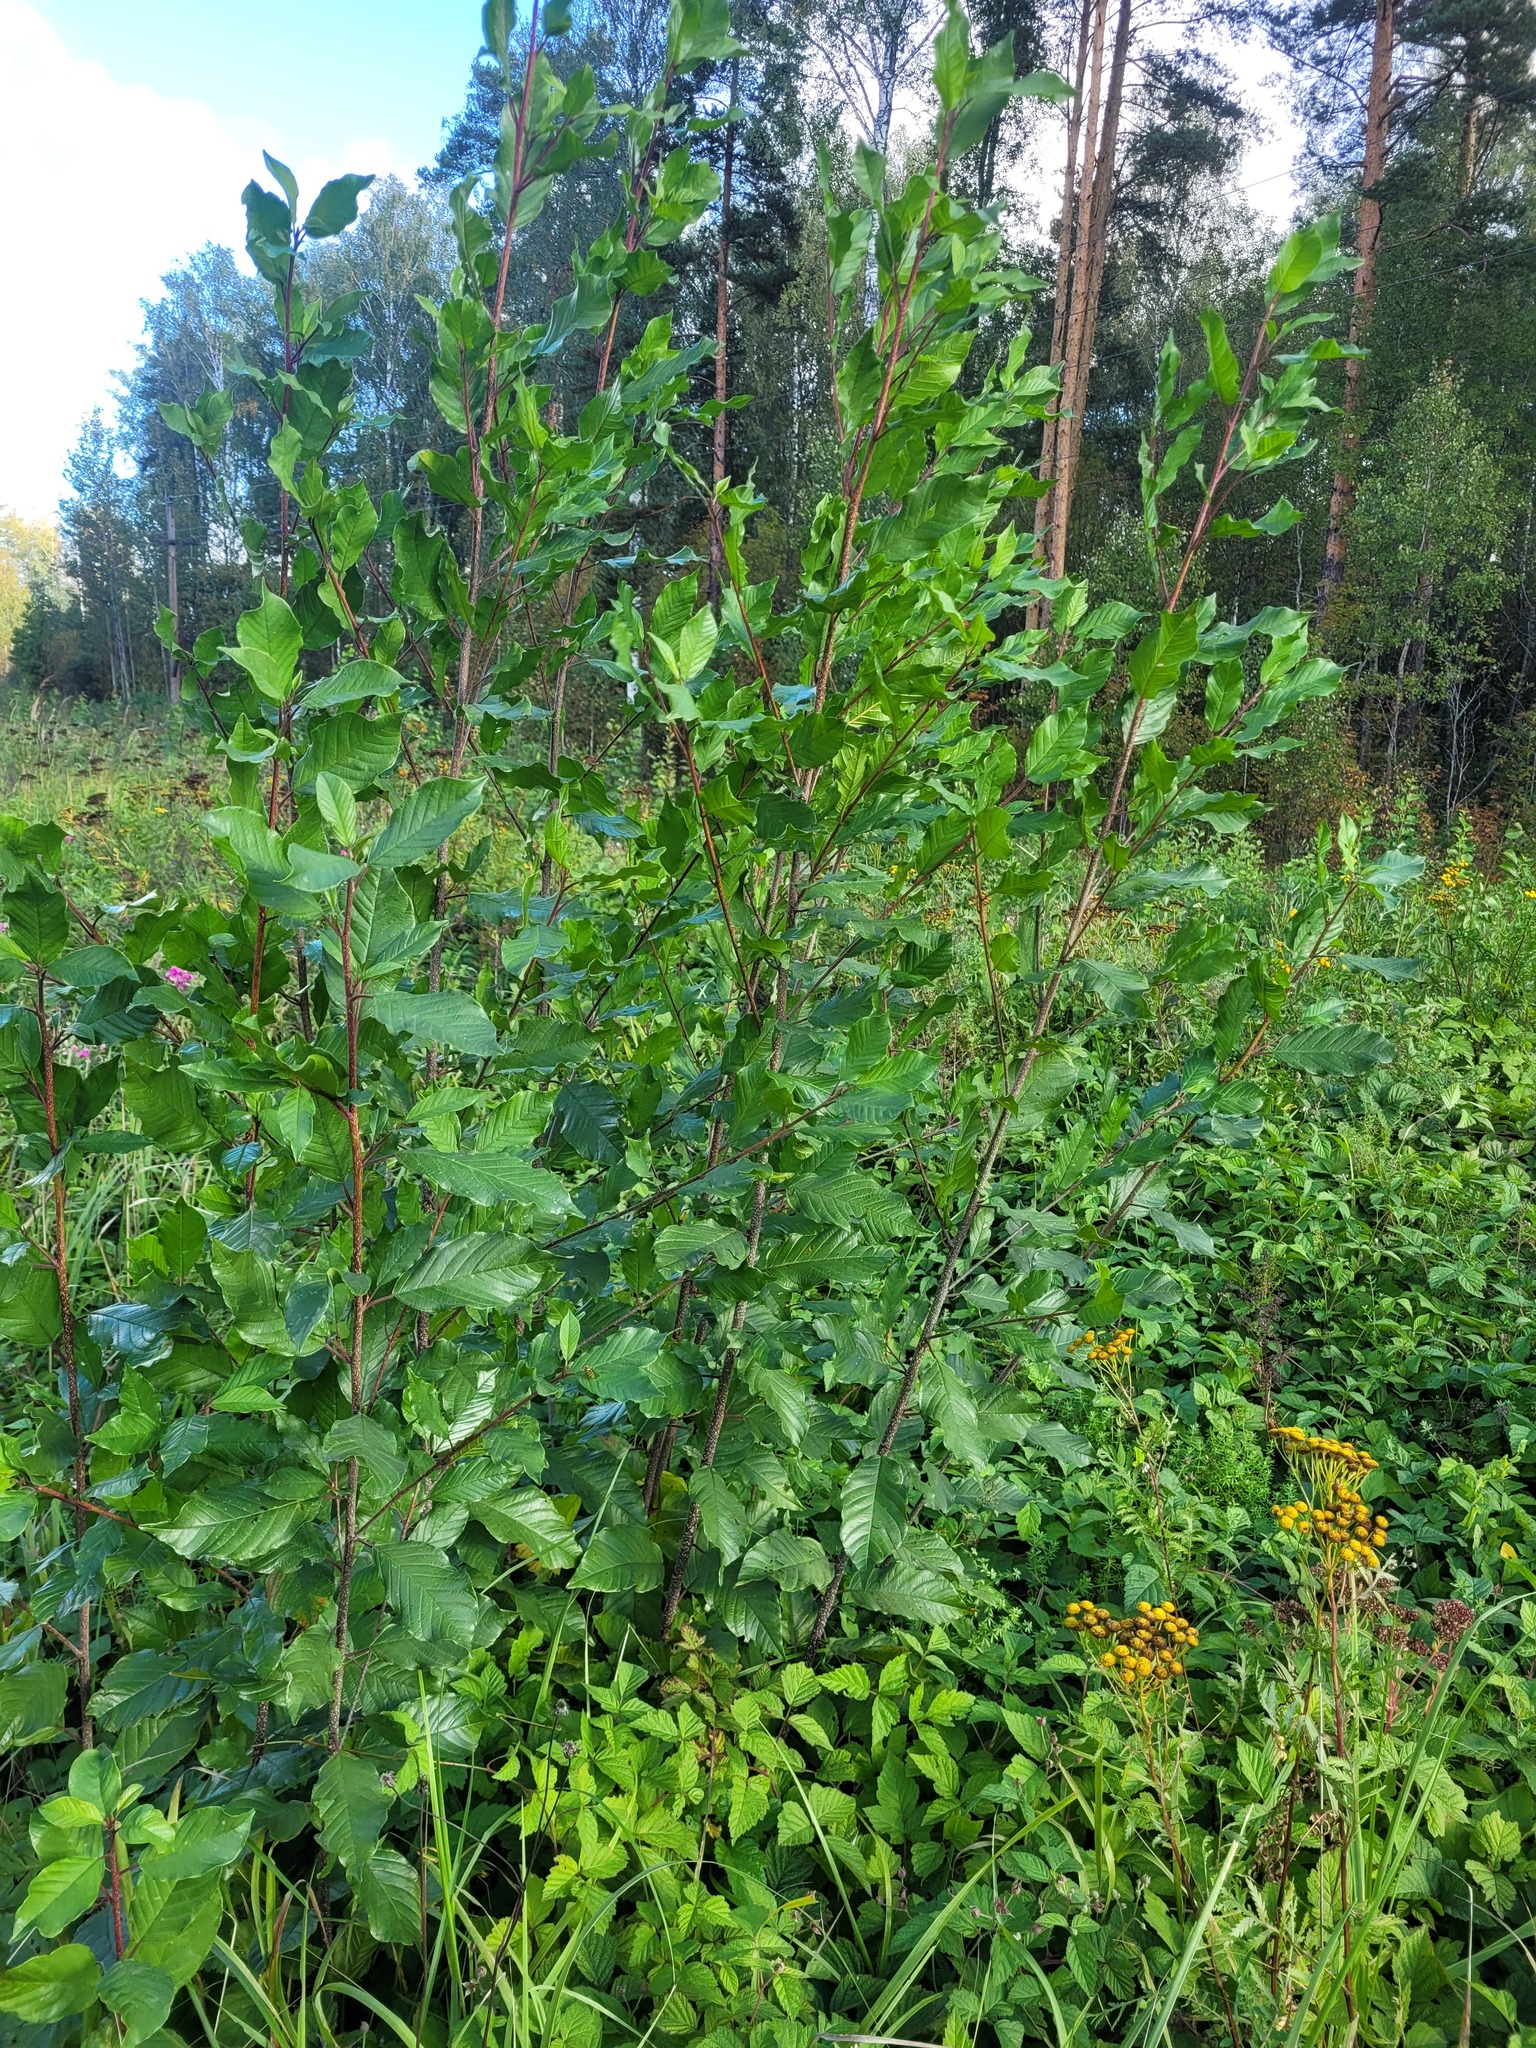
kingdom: Plantae
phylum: Tracheophyta
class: Magnoliopsida
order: Rosales
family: Rhamnaceae
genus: Frangula
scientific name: Frangula alnus
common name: Alder buckthorn
